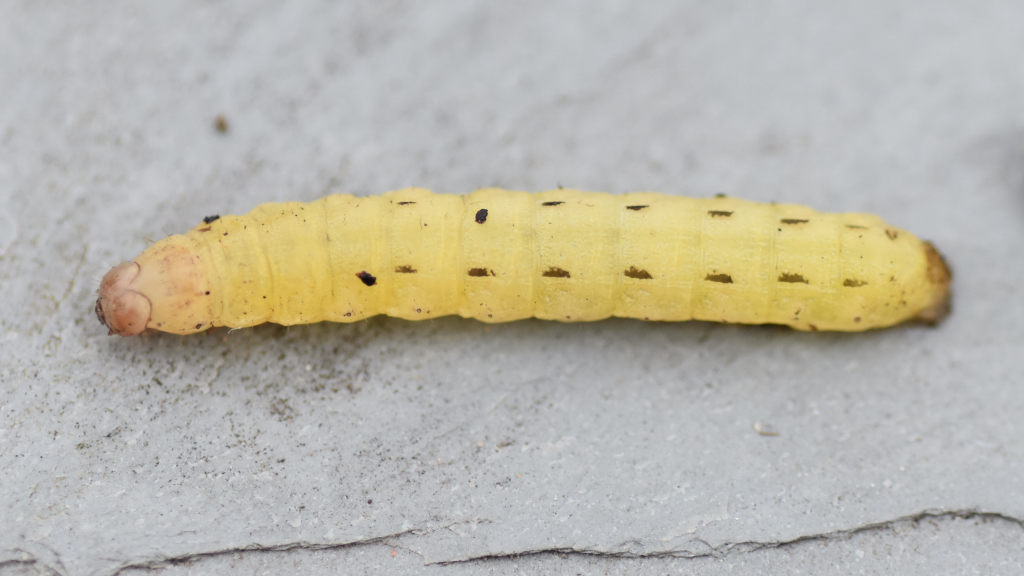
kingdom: Animalia
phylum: Arthropoda
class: Insecta
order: Lepidoptera
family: Noctuidae
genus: Noctua
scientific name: Noctua pronuba
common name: Large yellow underwing
